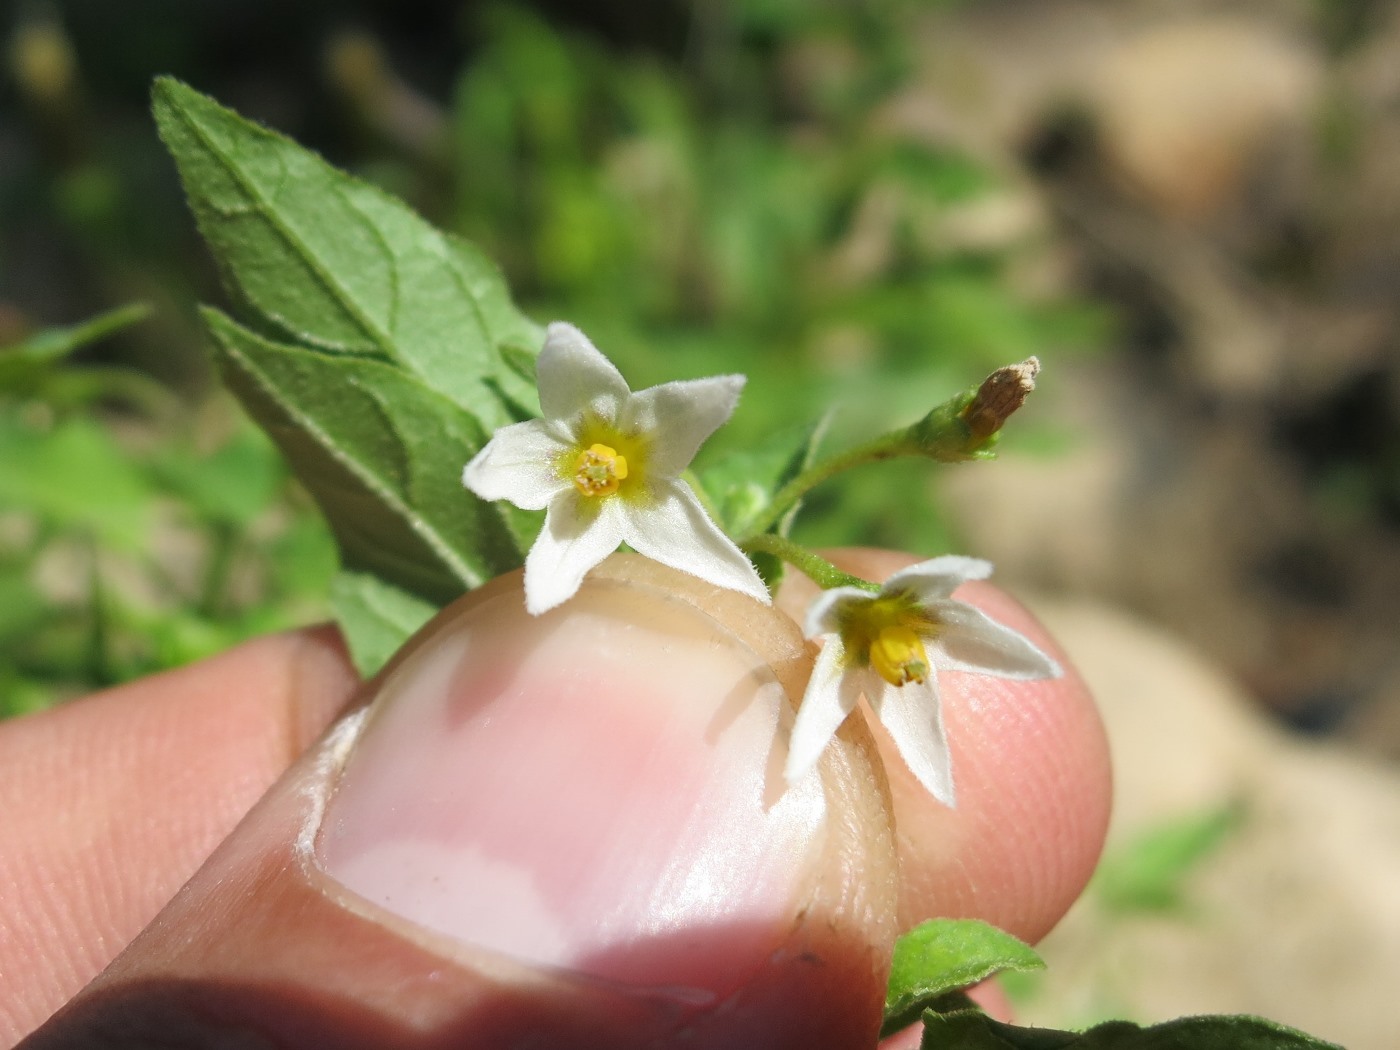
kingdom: Plantae
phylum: Tracheophyta
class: Magnoliopsida
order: Solanales
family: Solanaceae
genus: Solanum
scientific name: Solanum emulans
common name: Eastern black nightshade
